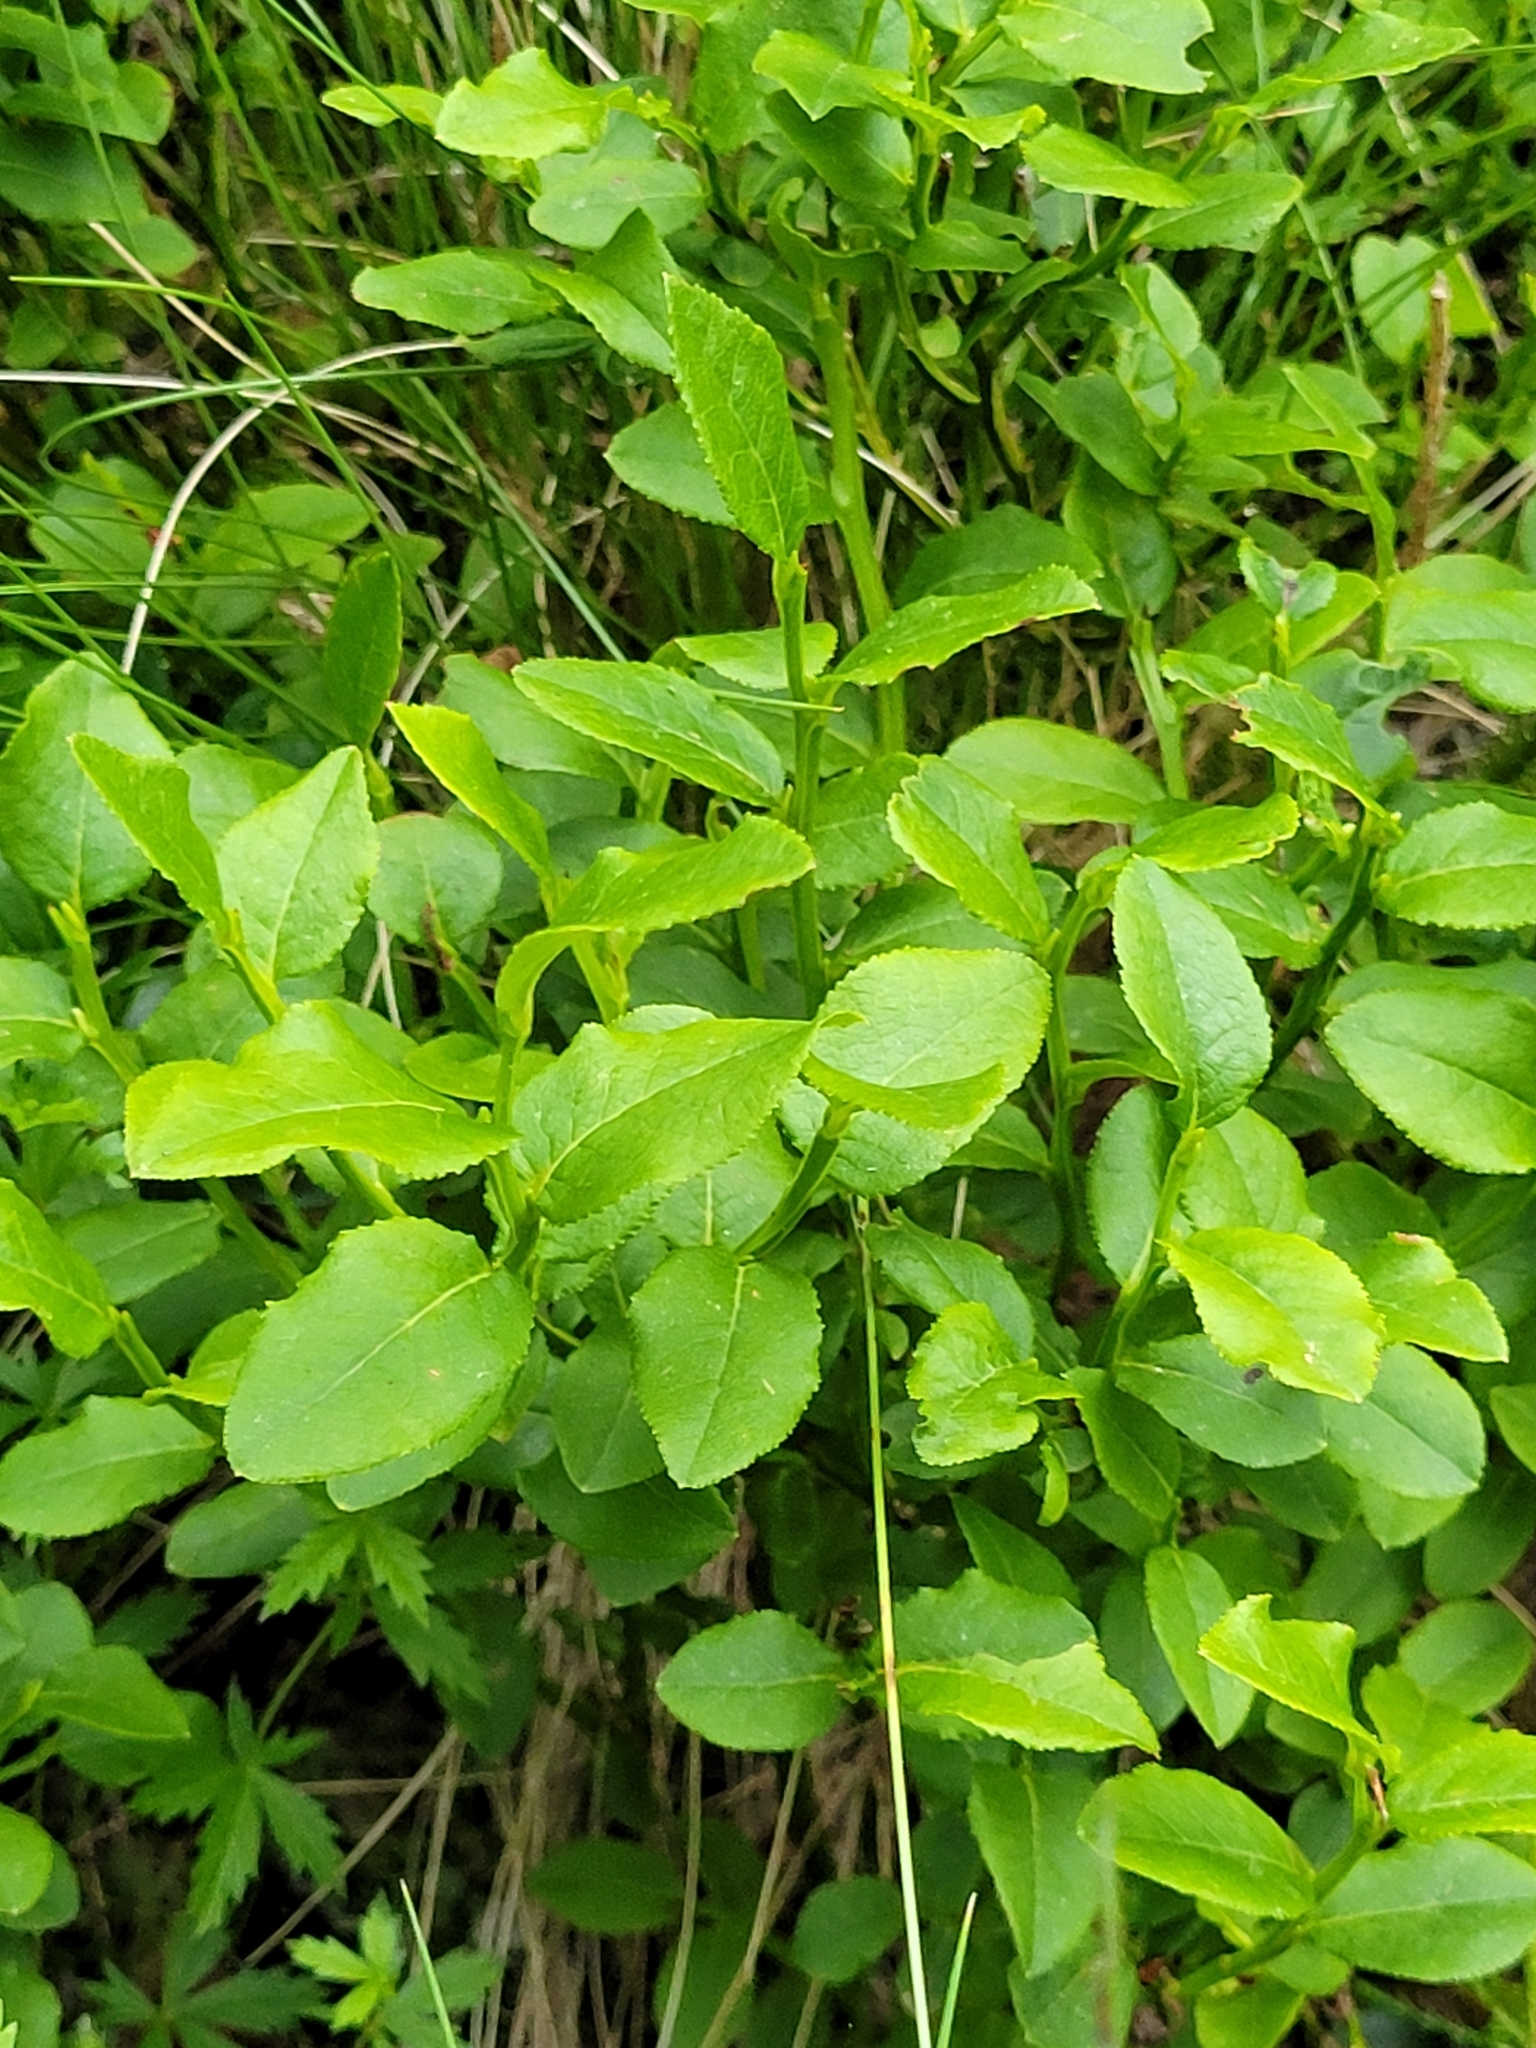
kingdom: Plantae
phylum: Tracheophyta
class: Magnoliopsida
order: Ericales
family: Ericaceae
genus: Vaccinium
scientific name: Vaccinium myrtillus
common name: Bilberry
